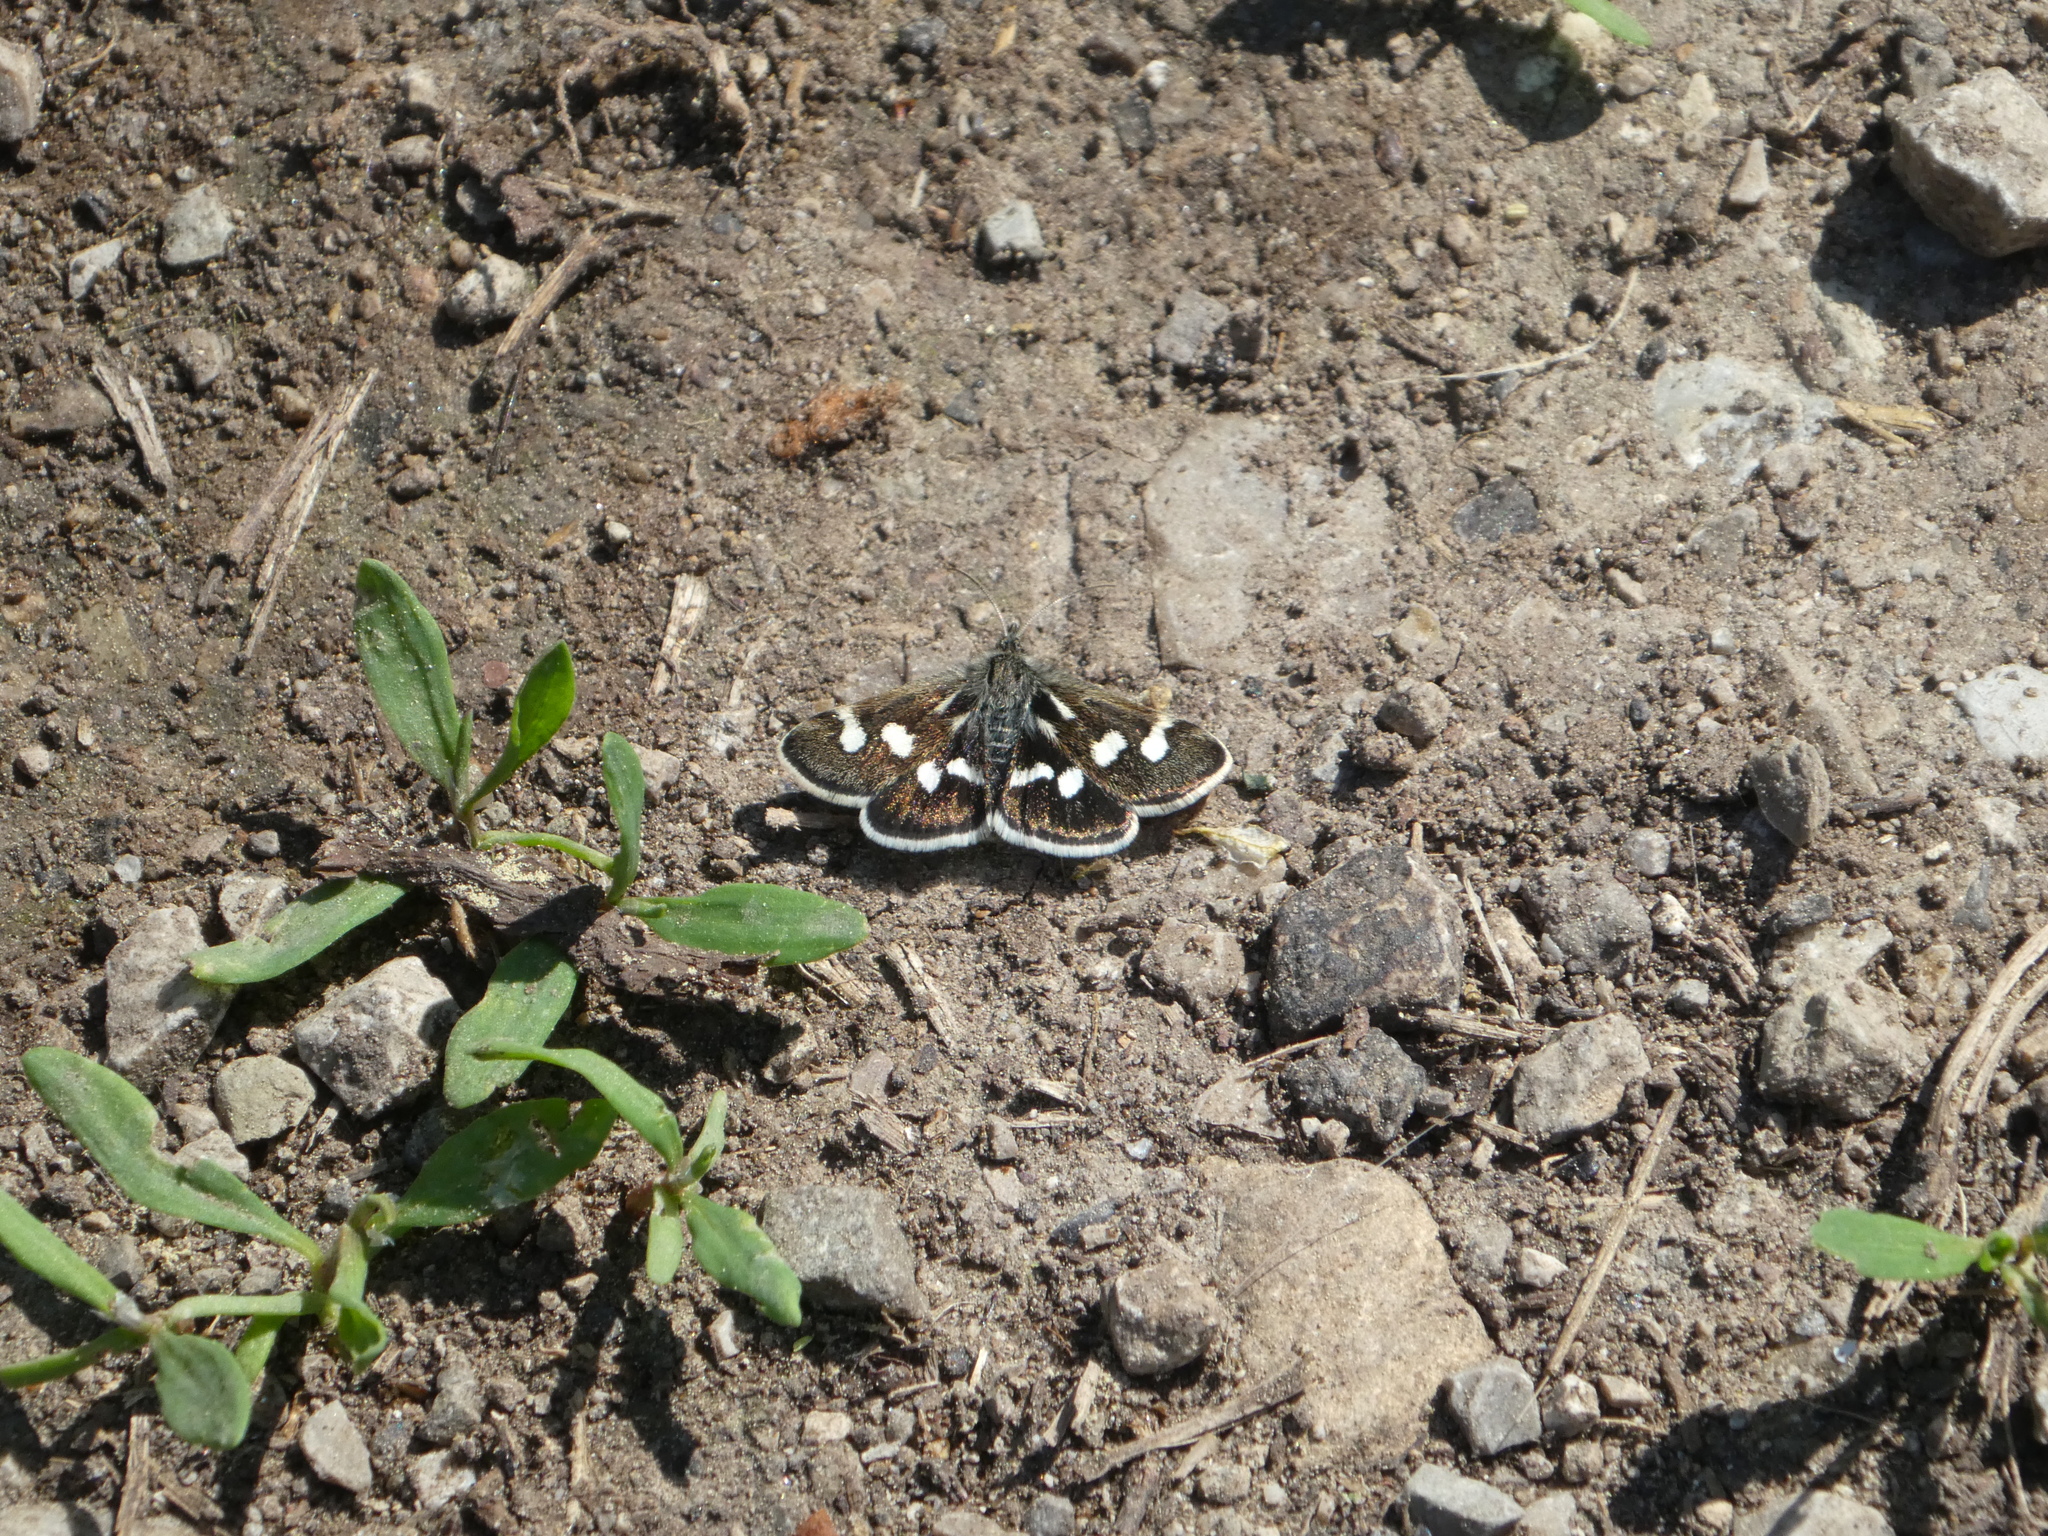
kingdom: Animalia
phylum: Arthropoda
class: Insecta
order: Lepidoptera
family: Crambidae
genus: Eurrhypis
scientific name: Eurrhypis pollinalis
